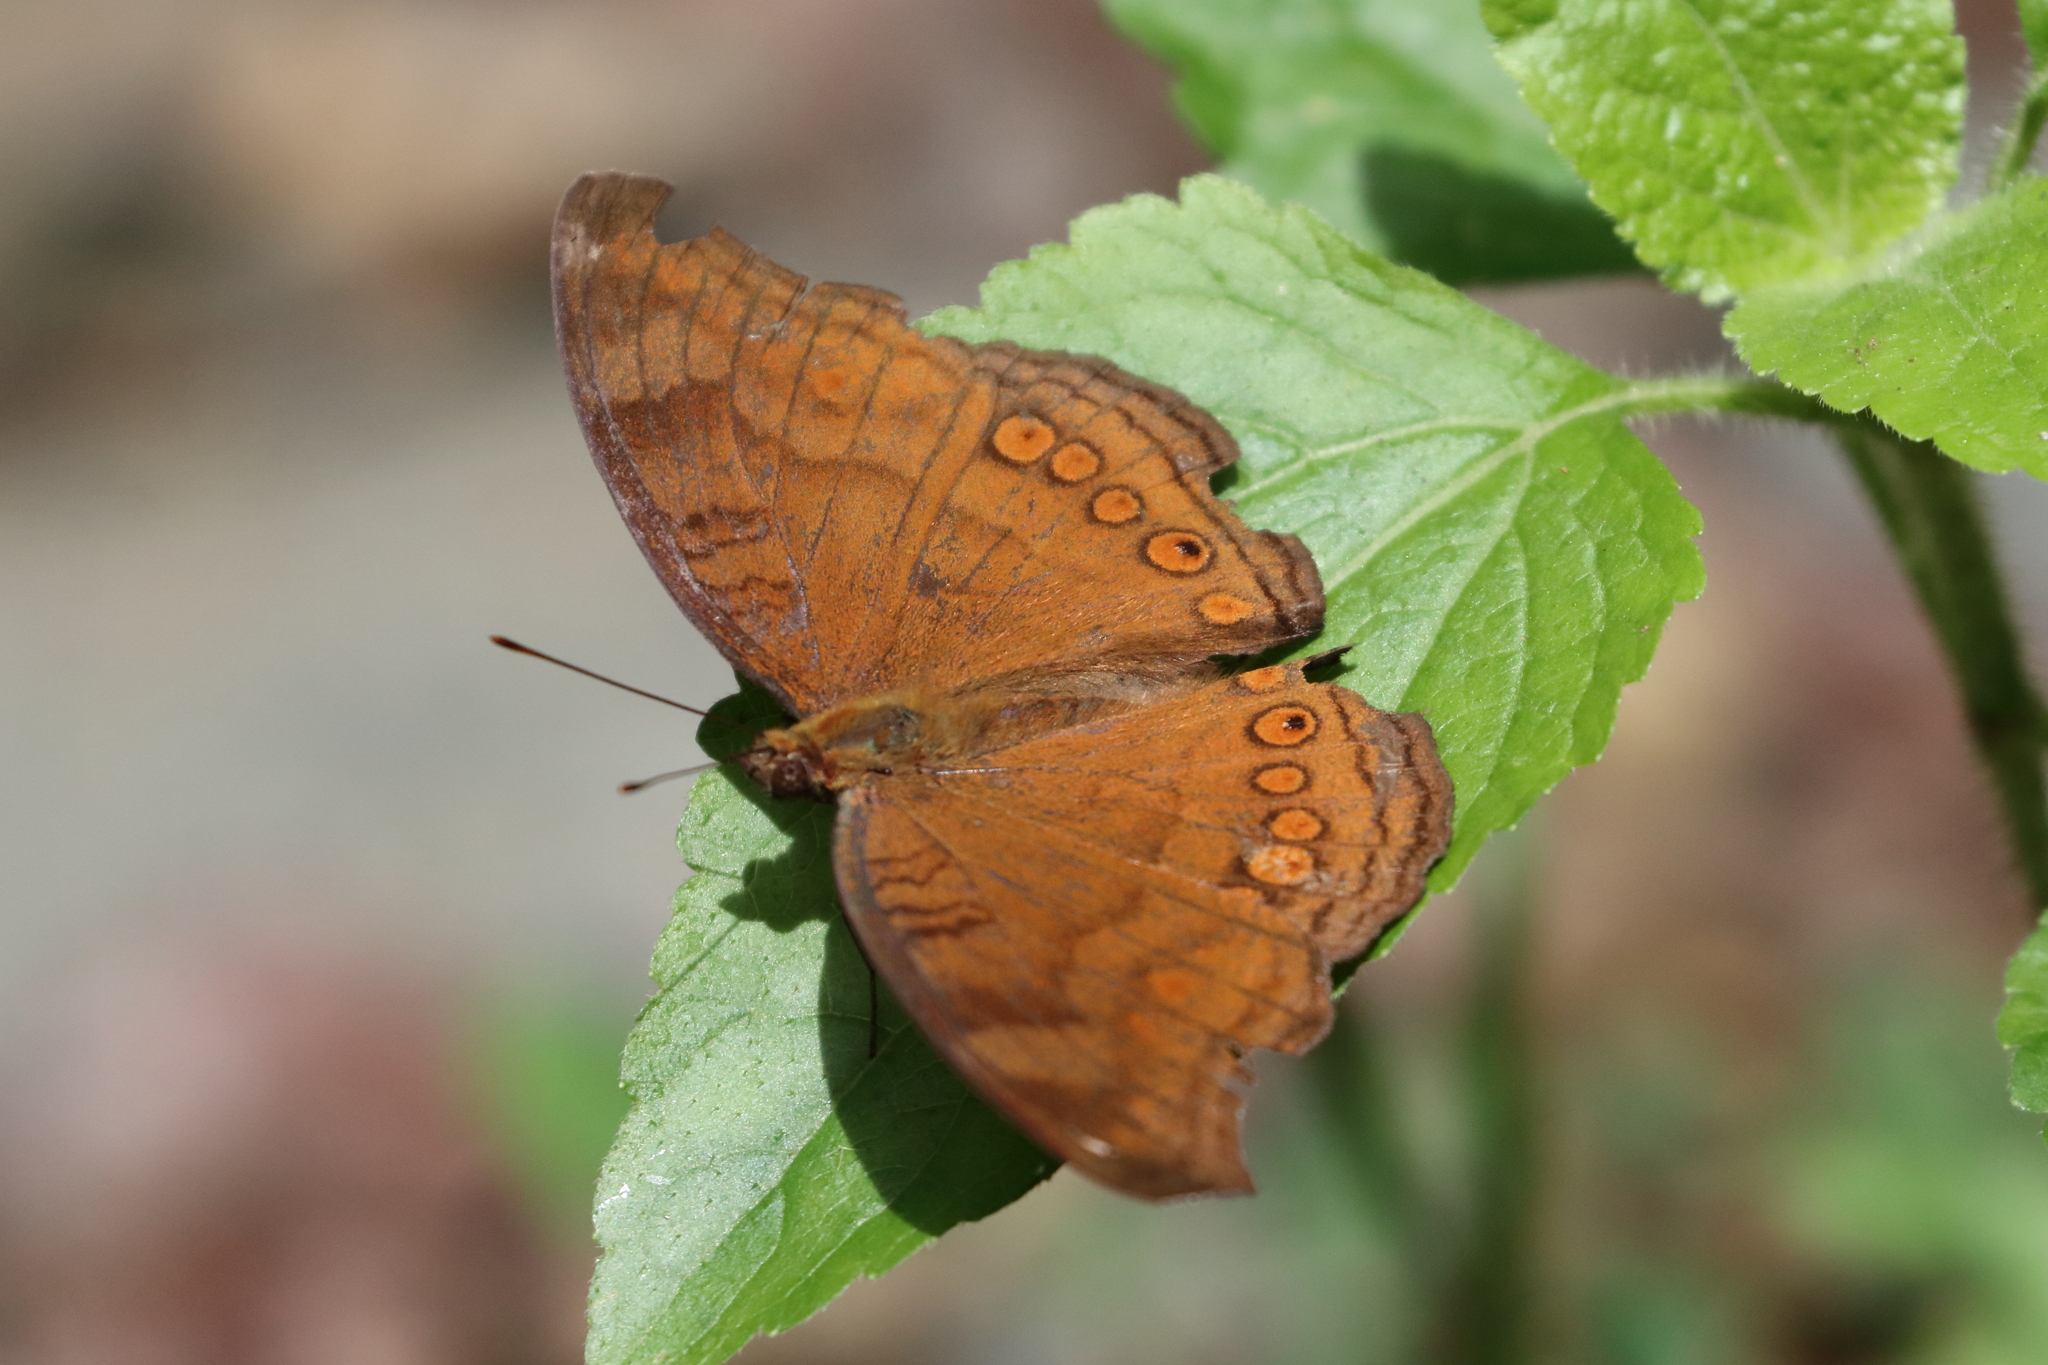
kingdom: Animalia
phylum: Arthropoda
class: Insecta
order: Lepidoptera
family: Nymphalidae
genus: Junonia
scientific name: Junonia hedonia
